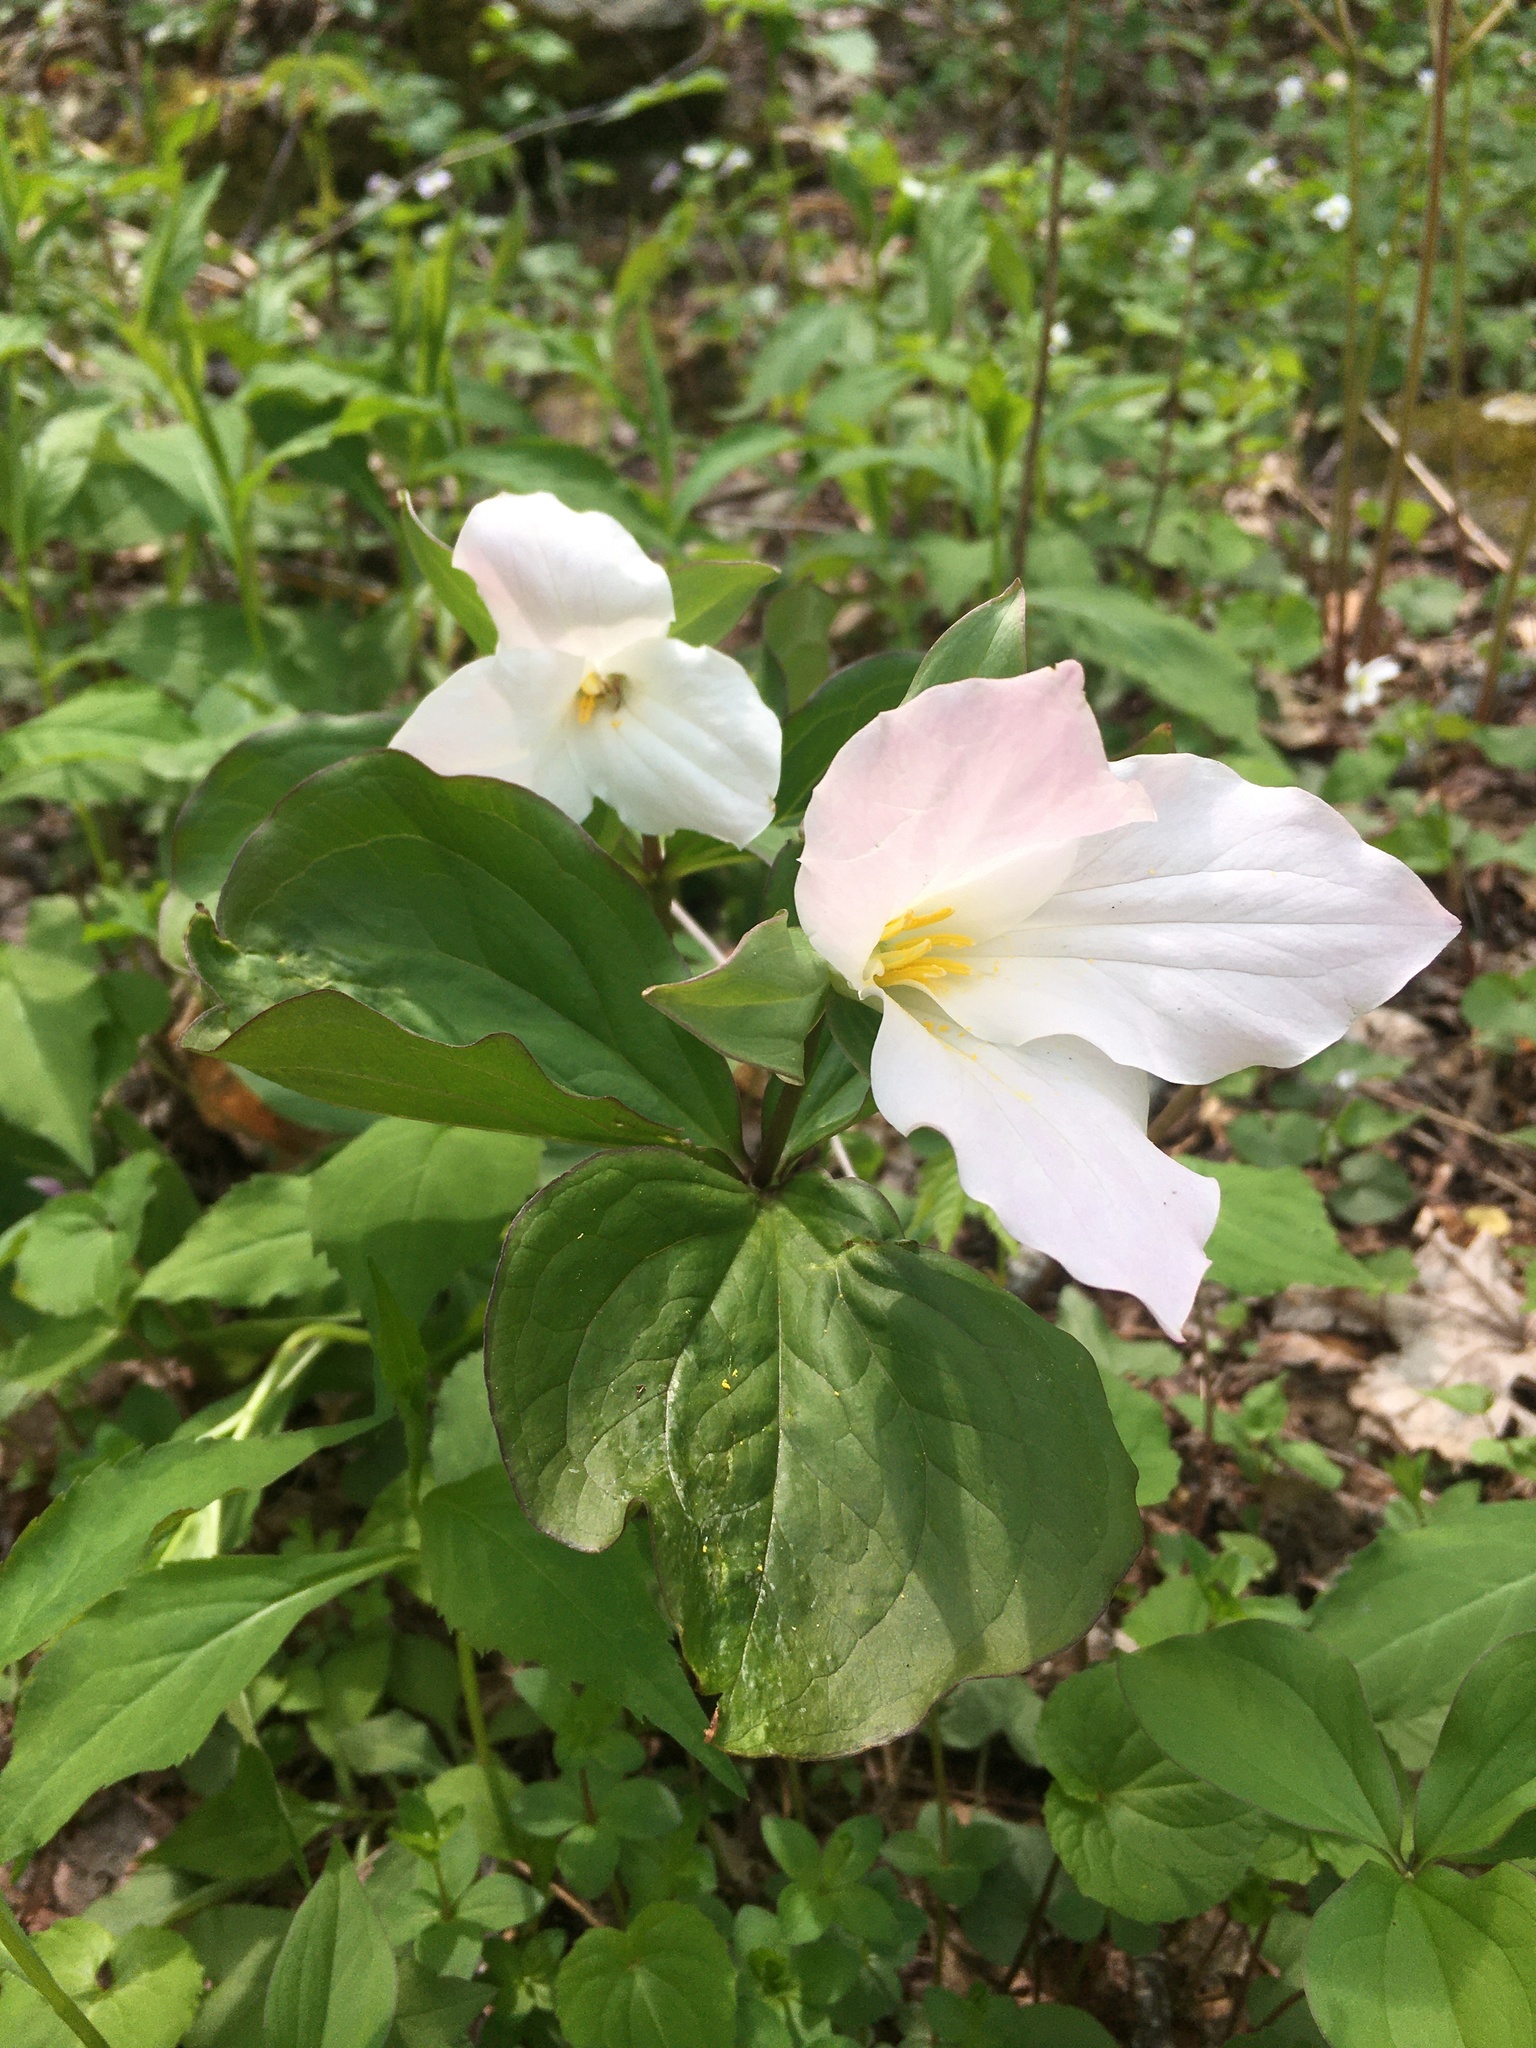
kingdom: Plantae
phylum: Tracheophyta
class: Liliopsida
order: Liliales
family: Melanthiaceae
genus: Trillium
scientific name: Trillium grandiflorum
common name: Great white trillium
